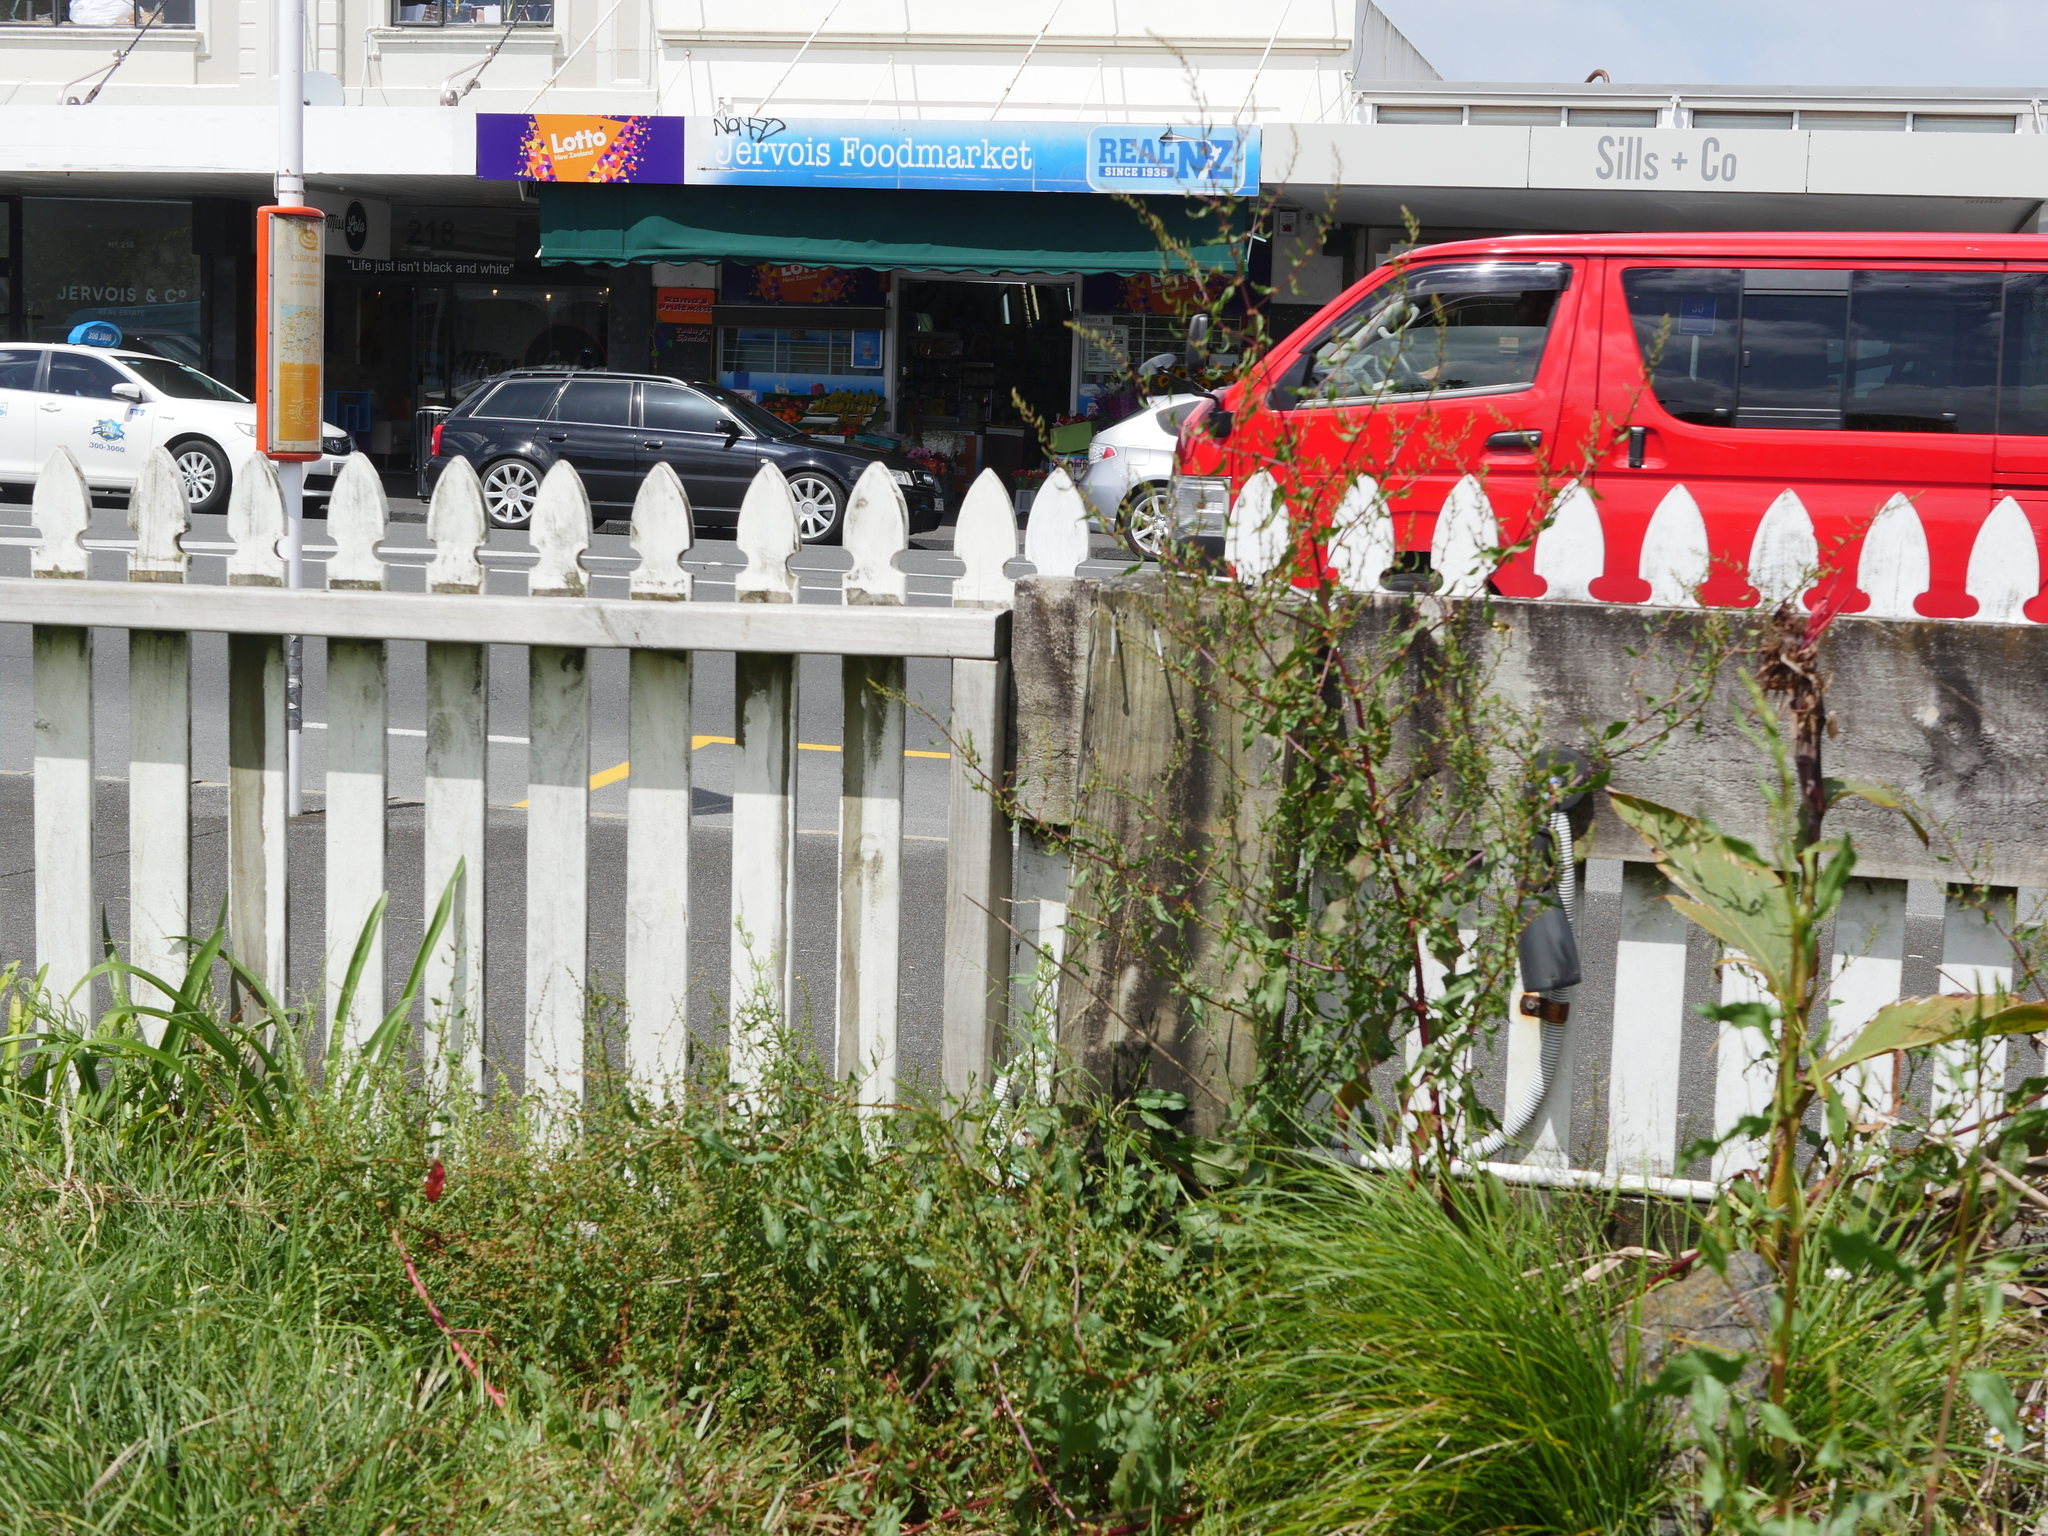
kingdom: Plantae
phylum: Tracheophyta
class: Magnoliopsida
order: Caryophyllales
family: Polygonaceae
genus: Rumex
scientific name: Rumex conglomeratus
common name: Clustered dock
